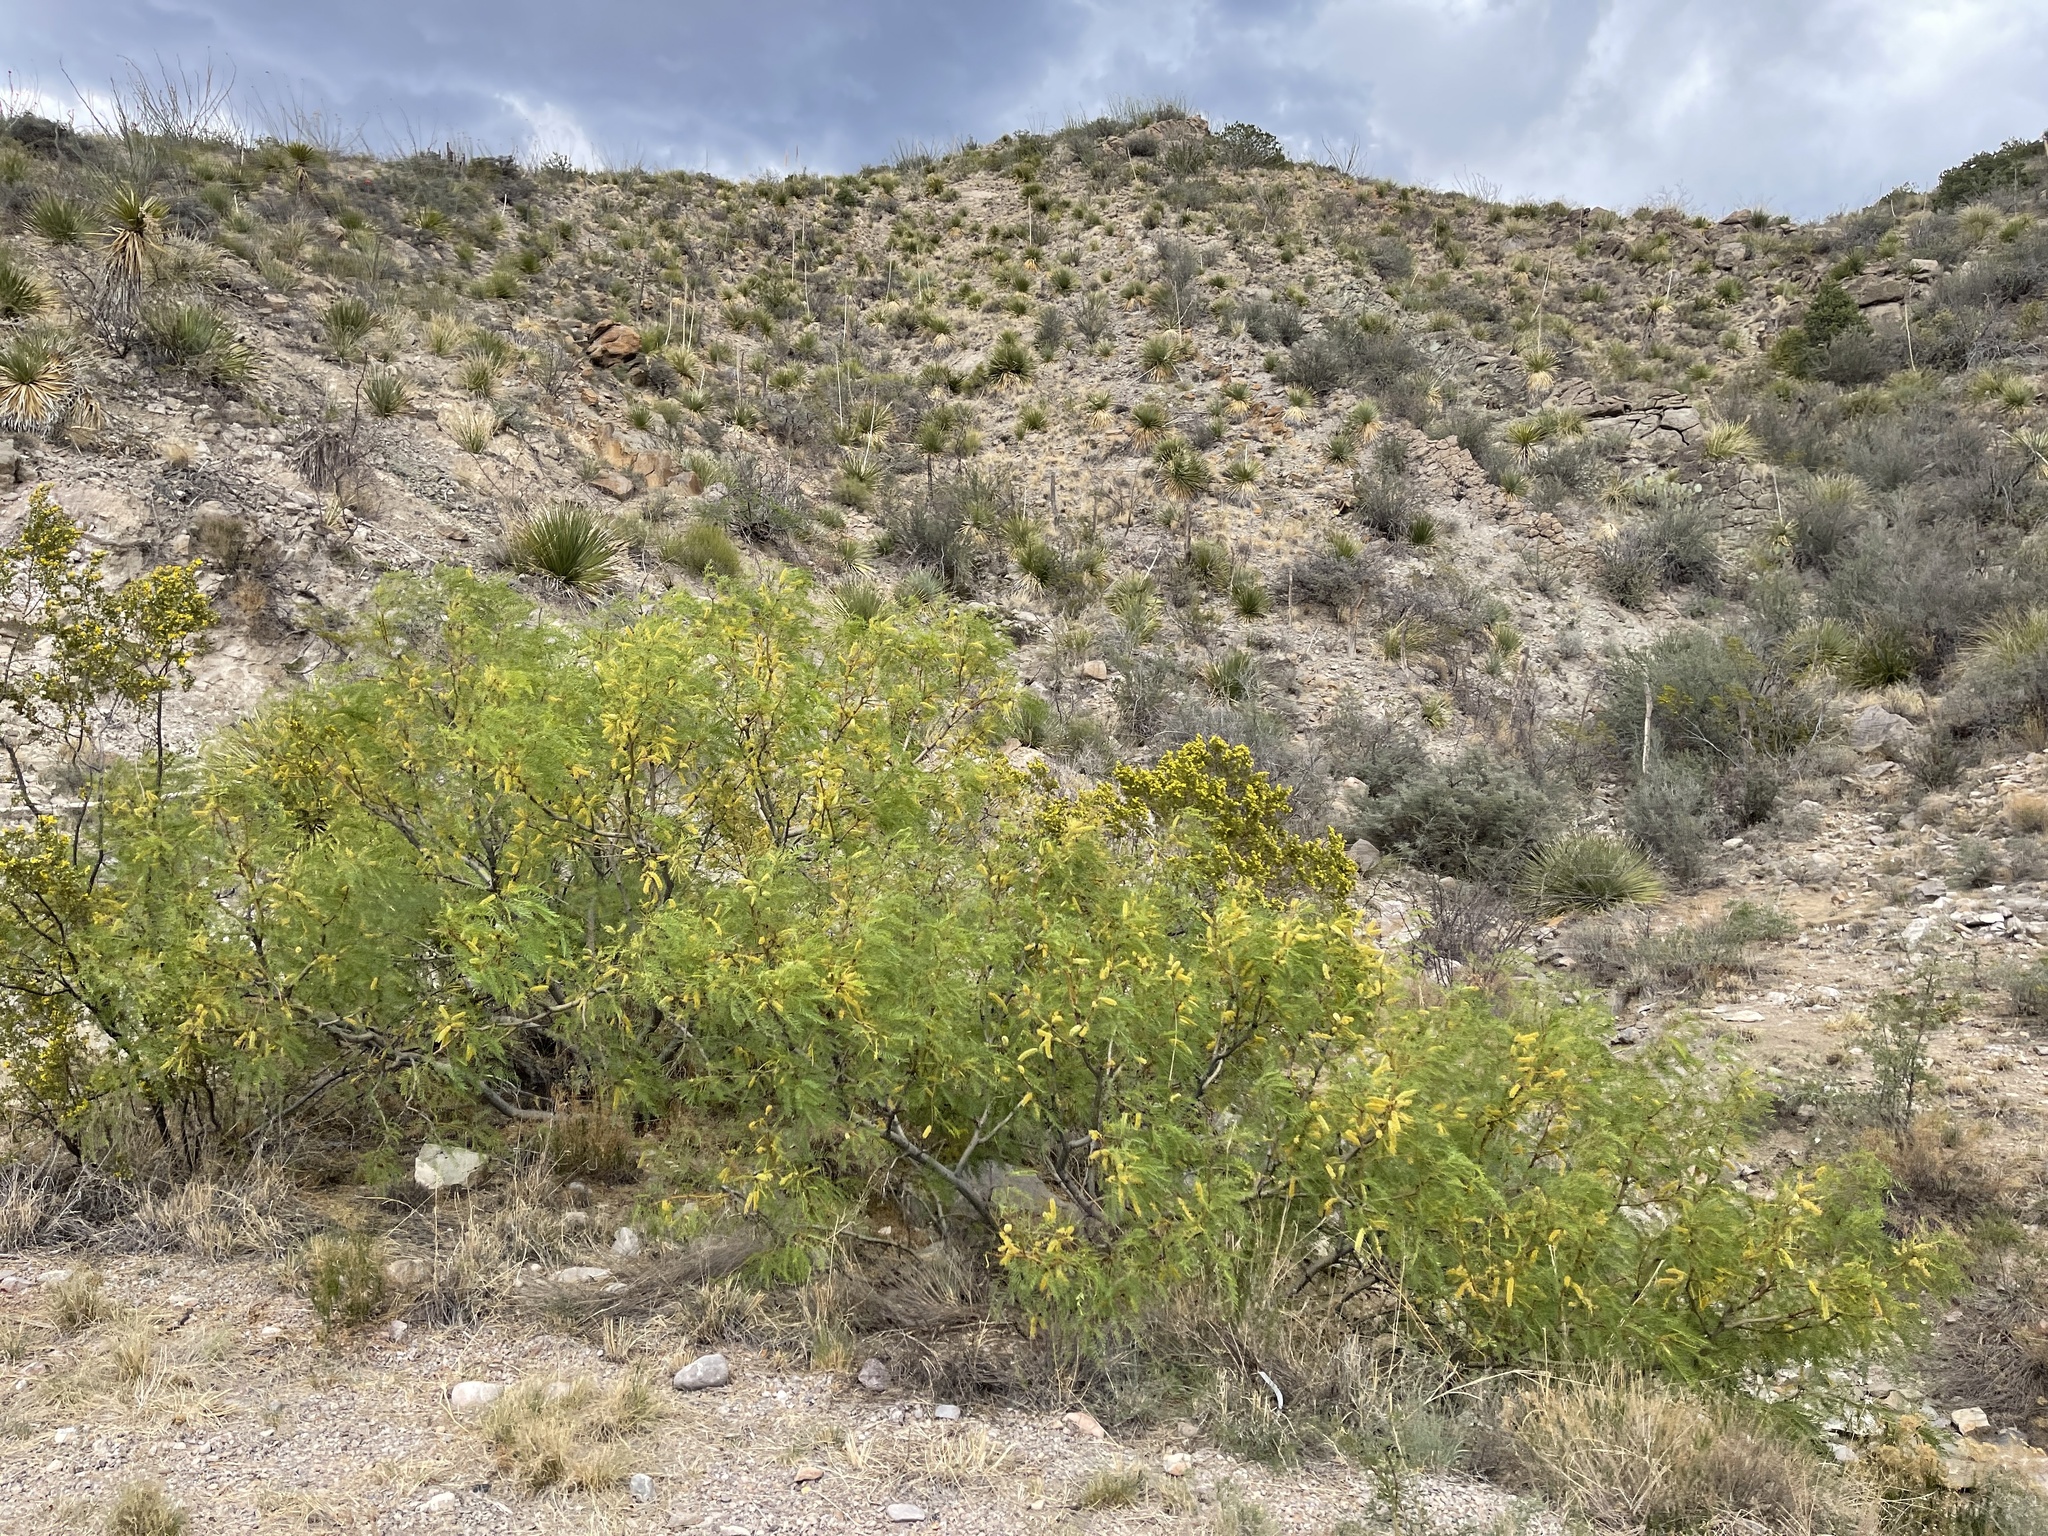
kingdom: Plantae
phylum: Tracheophyta
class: Magnoliopsida
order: Fabales
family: Fabaceae
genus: Prosopis
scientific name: Prosopis glandulosa
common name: Honey mesquite
